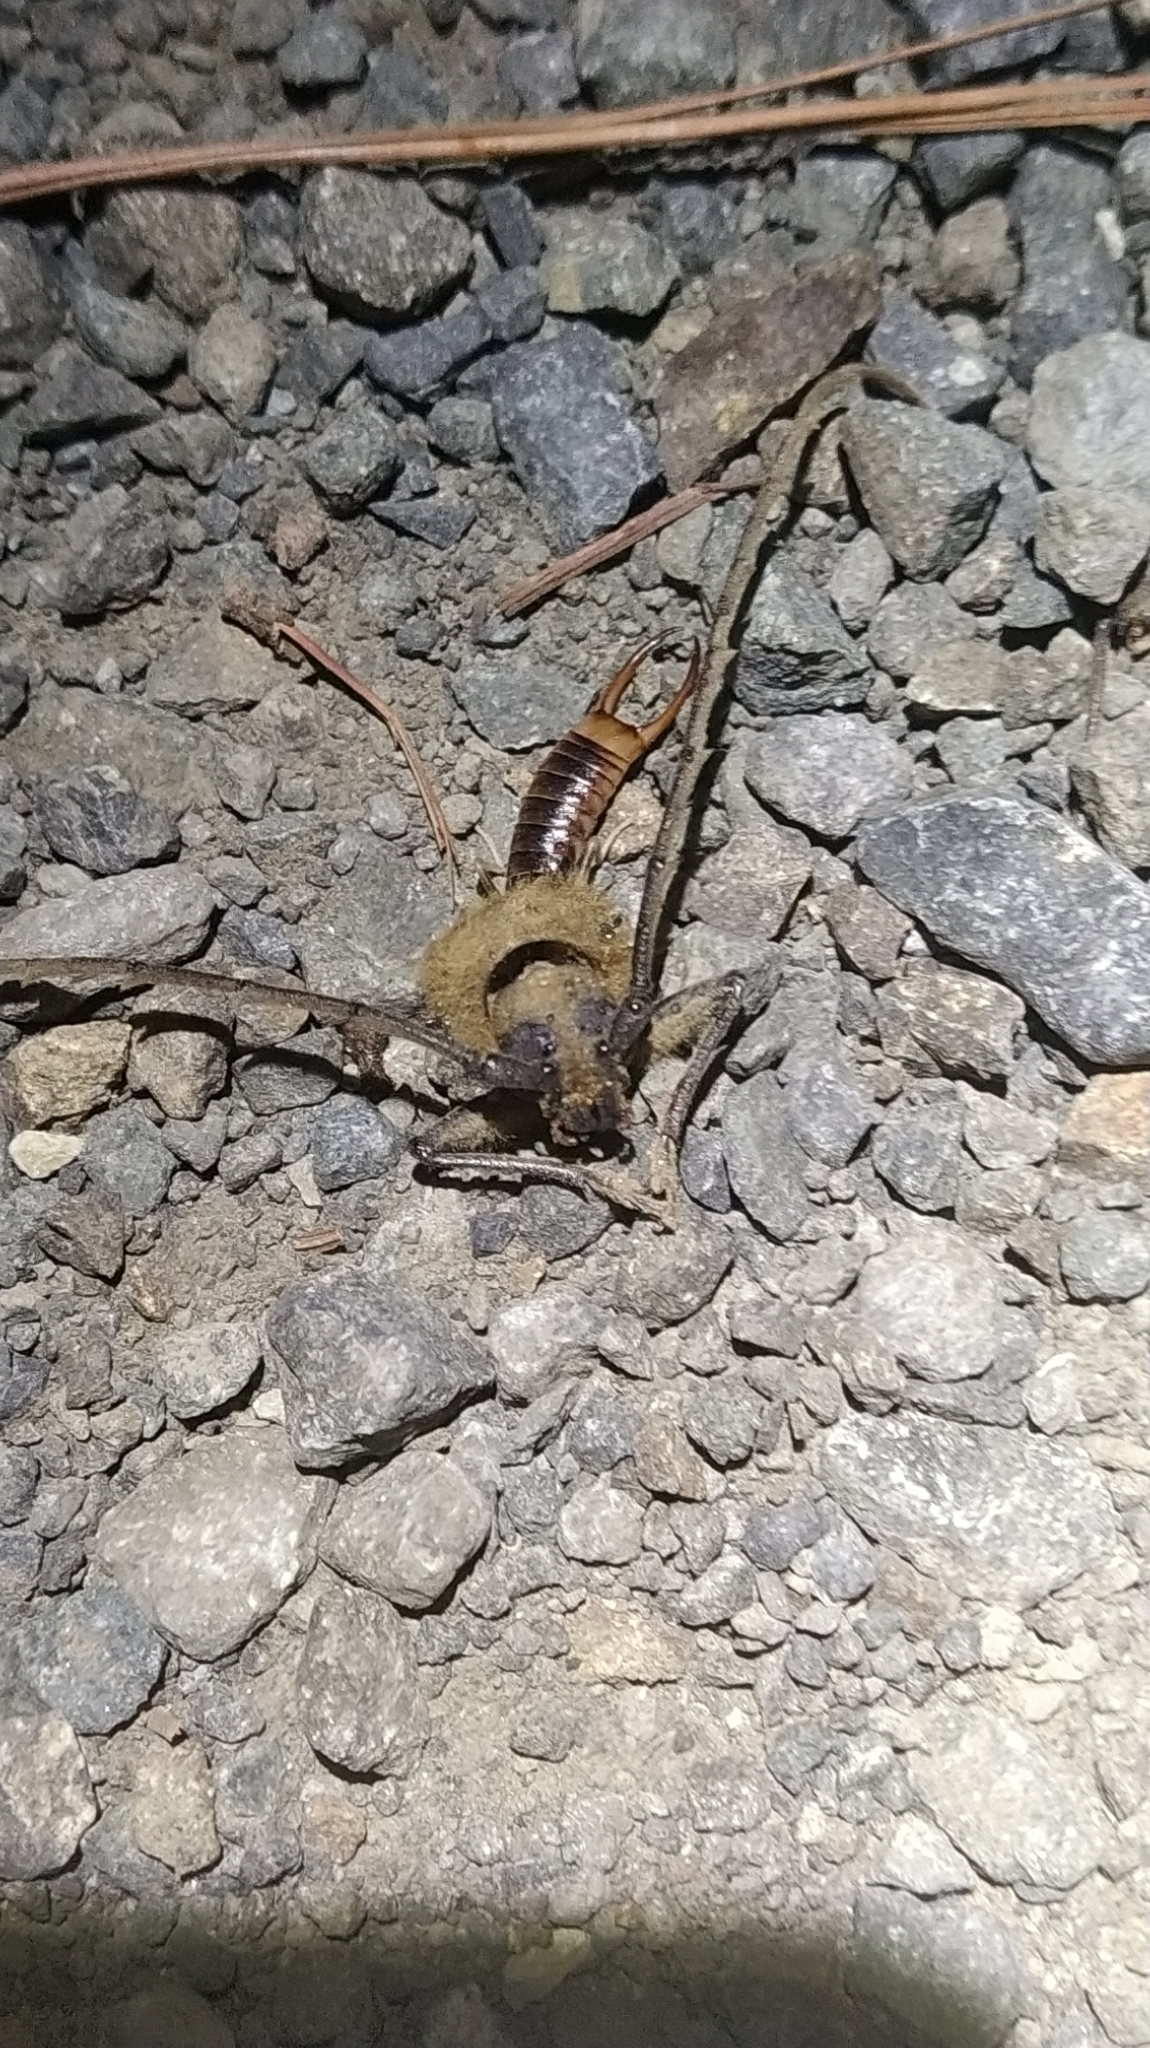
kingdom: Animalia
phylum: Arthropoda
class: Insecta
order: Dermaptera
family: Labiduridae
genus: Labidura
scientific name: Labidura riparia
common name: Striped earwig
